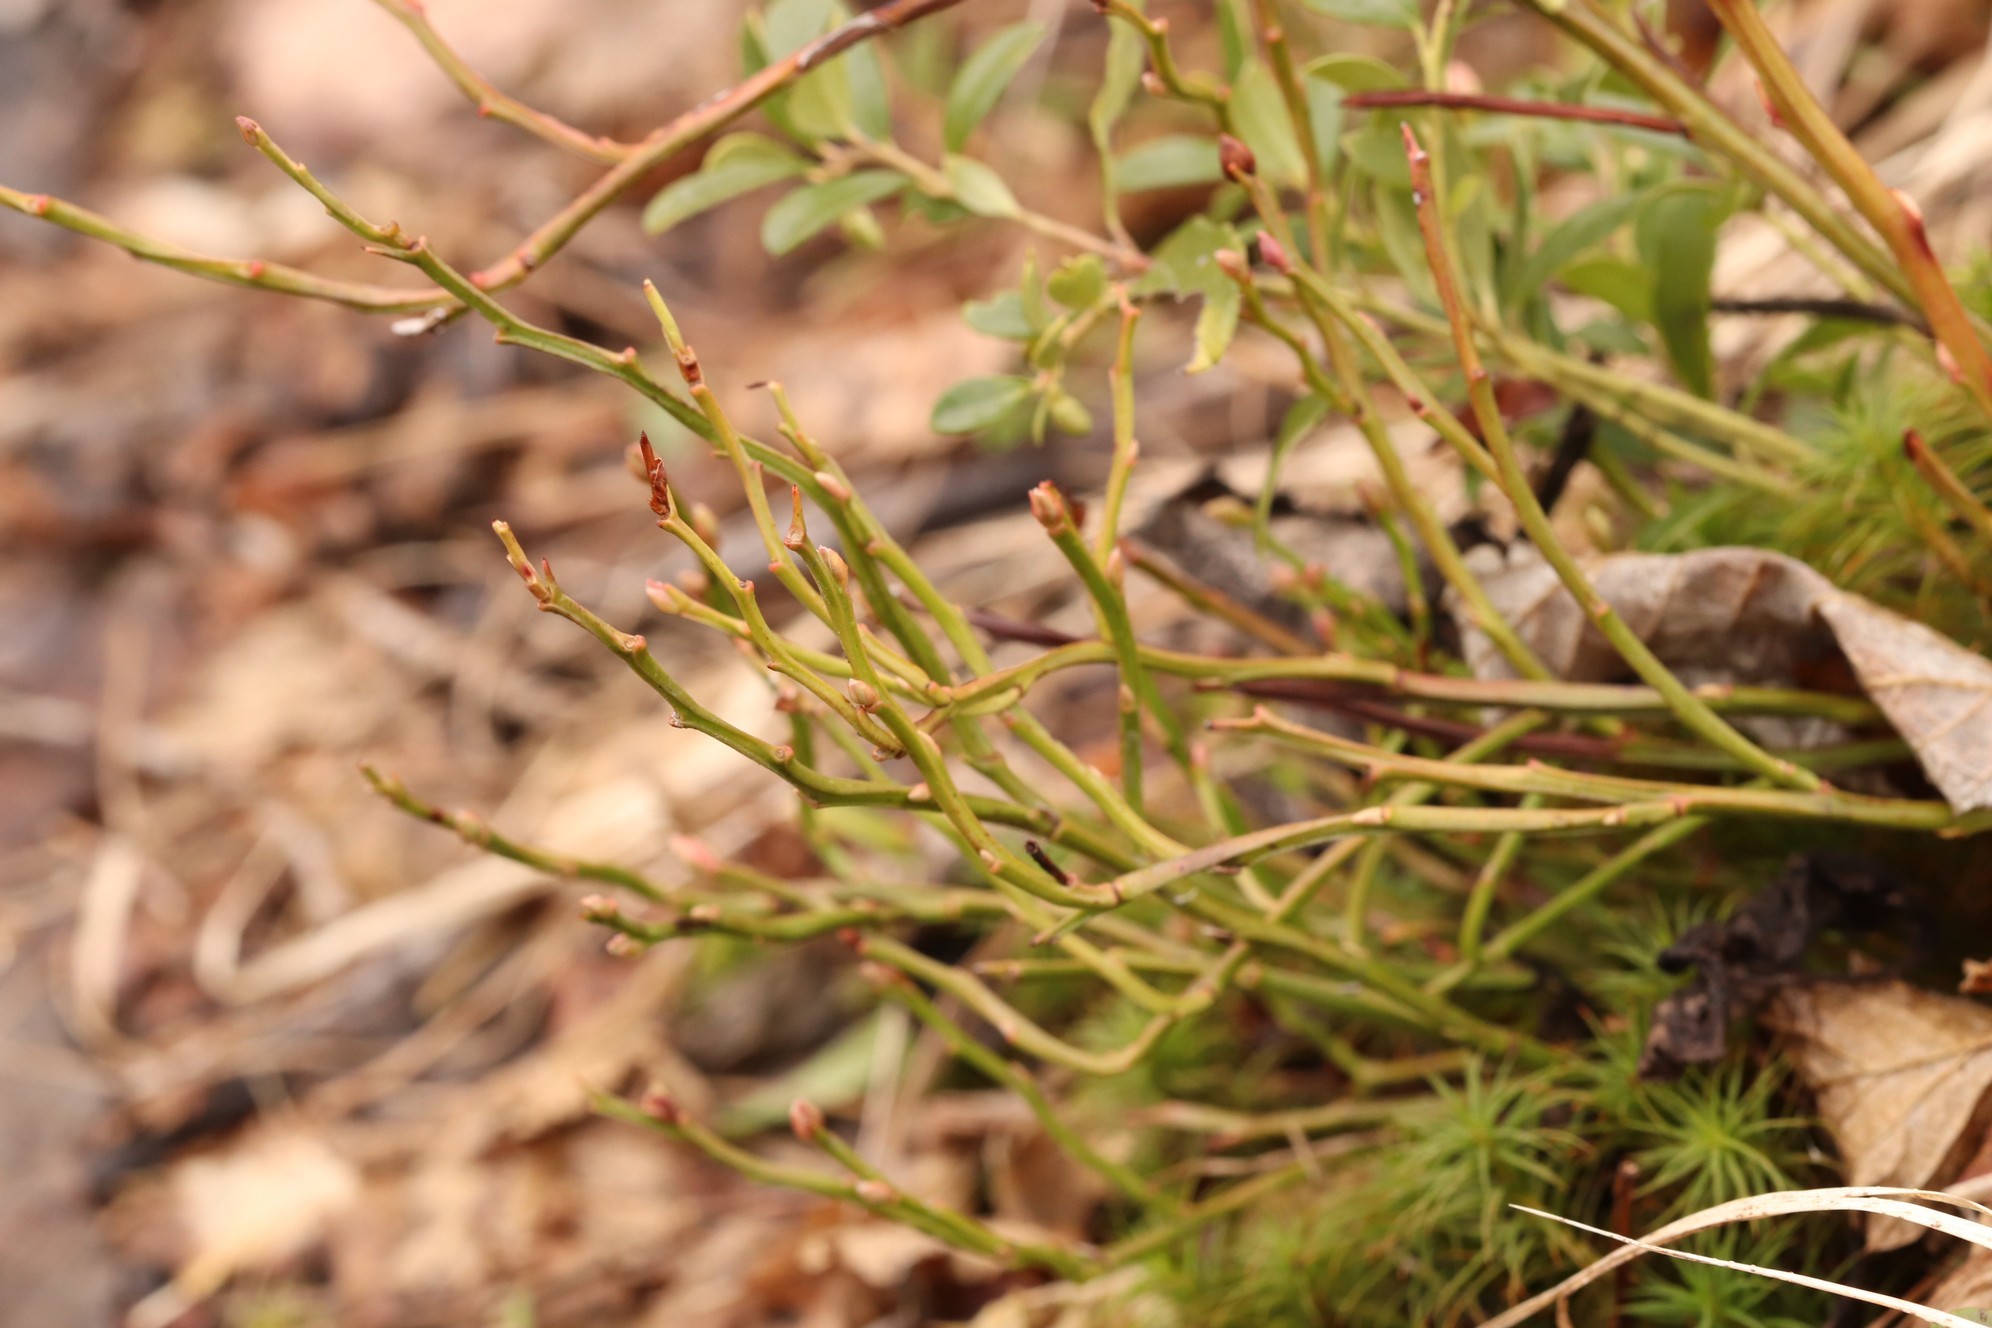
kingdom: Plantae
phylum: Tracheophyta
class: Magnoliopsida
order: Ericales
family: Ericaceae
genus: Vaccinium
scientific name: Vaccinium myrtillus
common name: Bilberry
